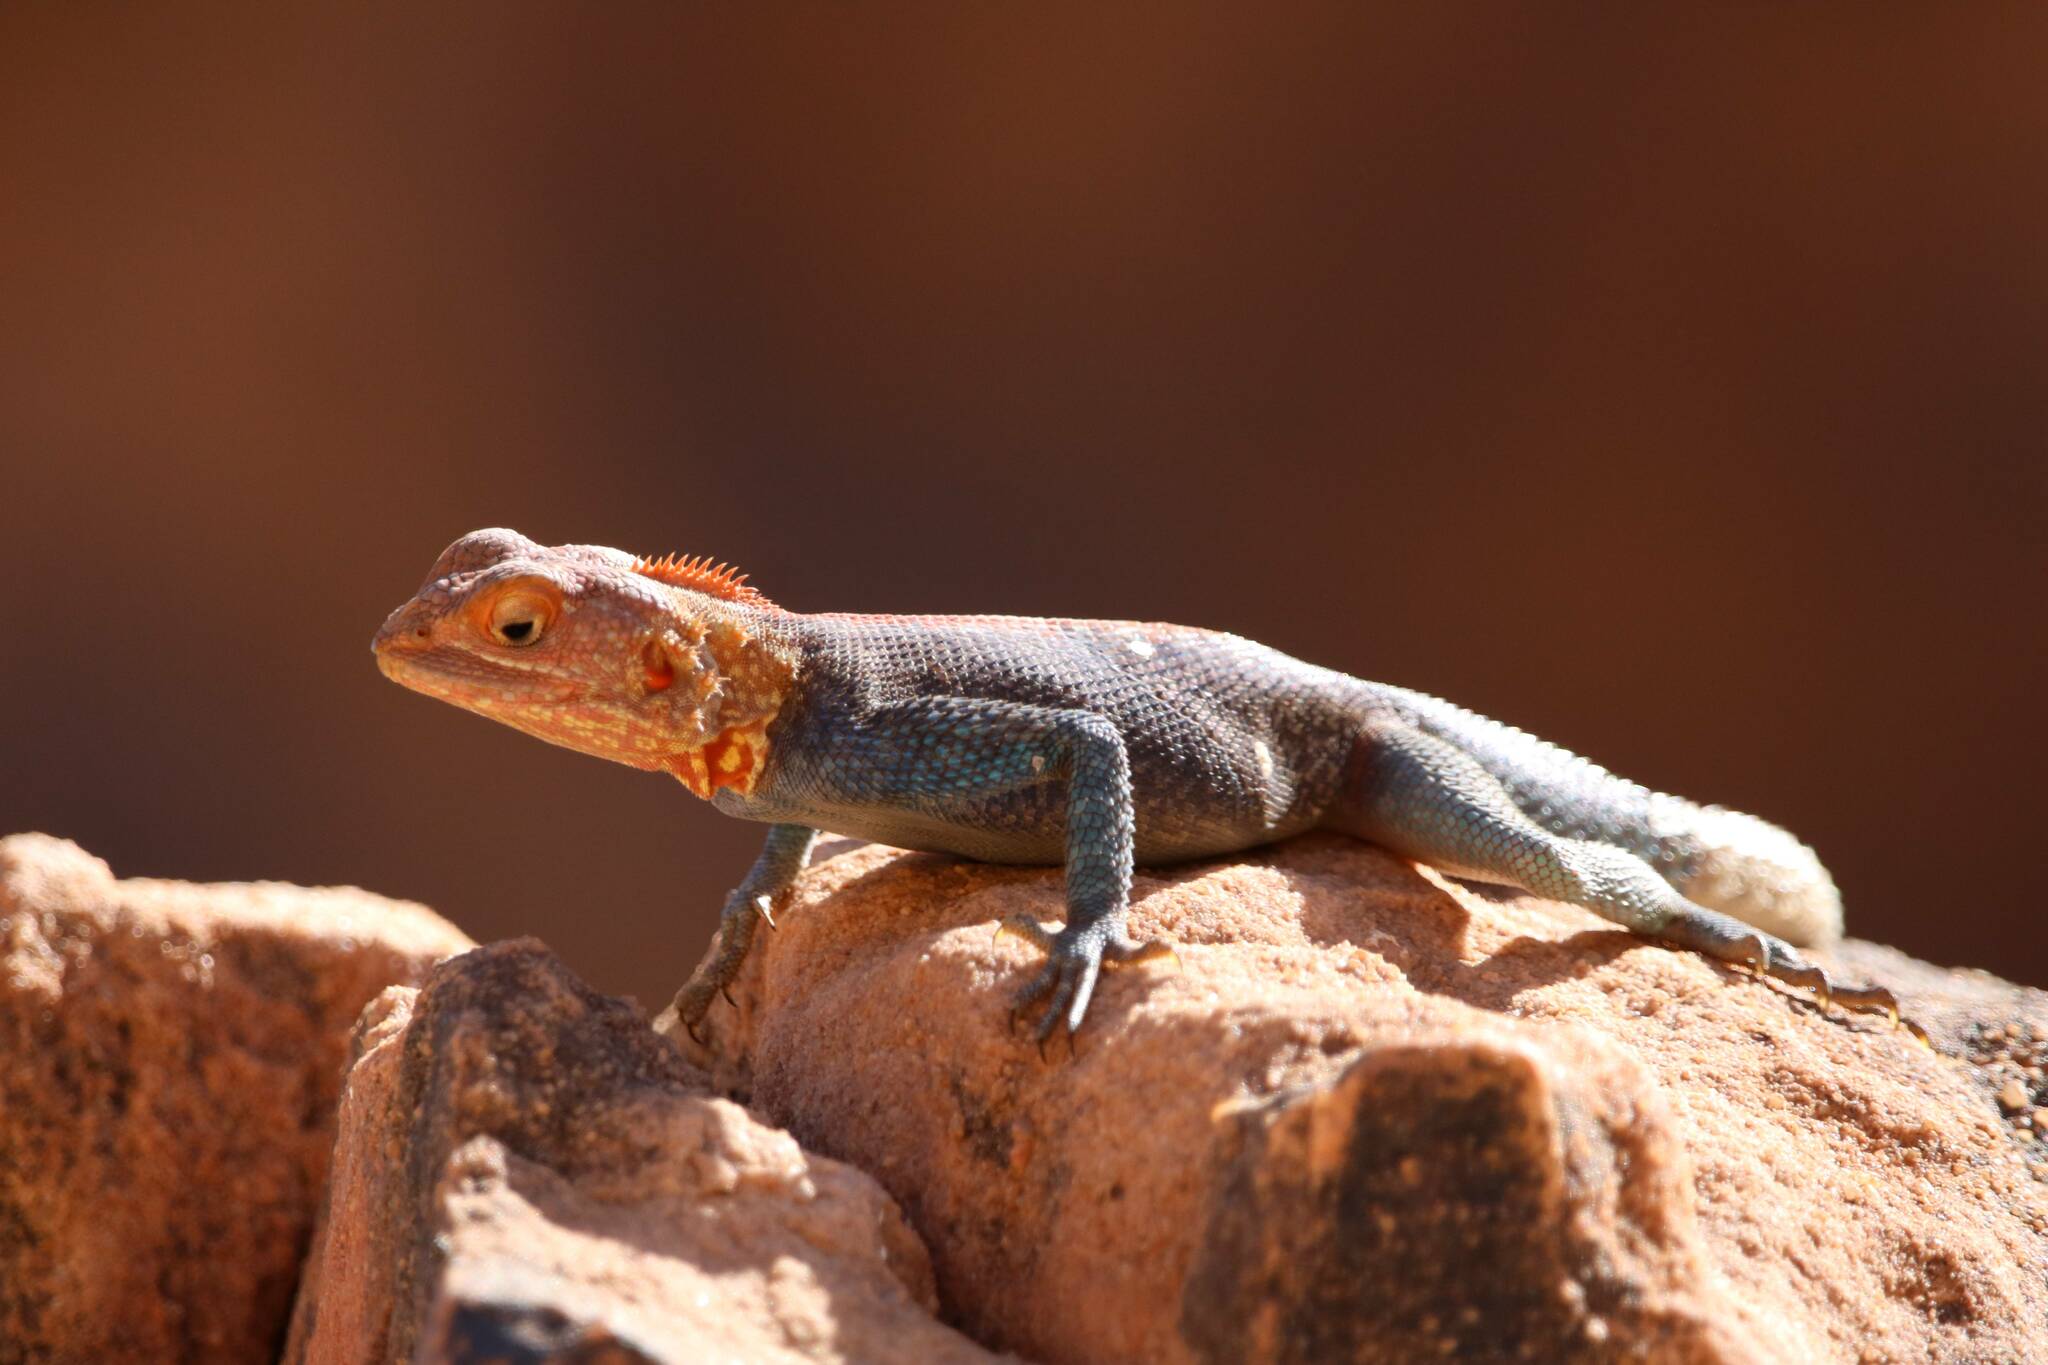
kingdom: Animalia
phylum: Chordata
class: Squamata
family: Agamidae
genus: Agama
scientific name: Agama tassiliensis
